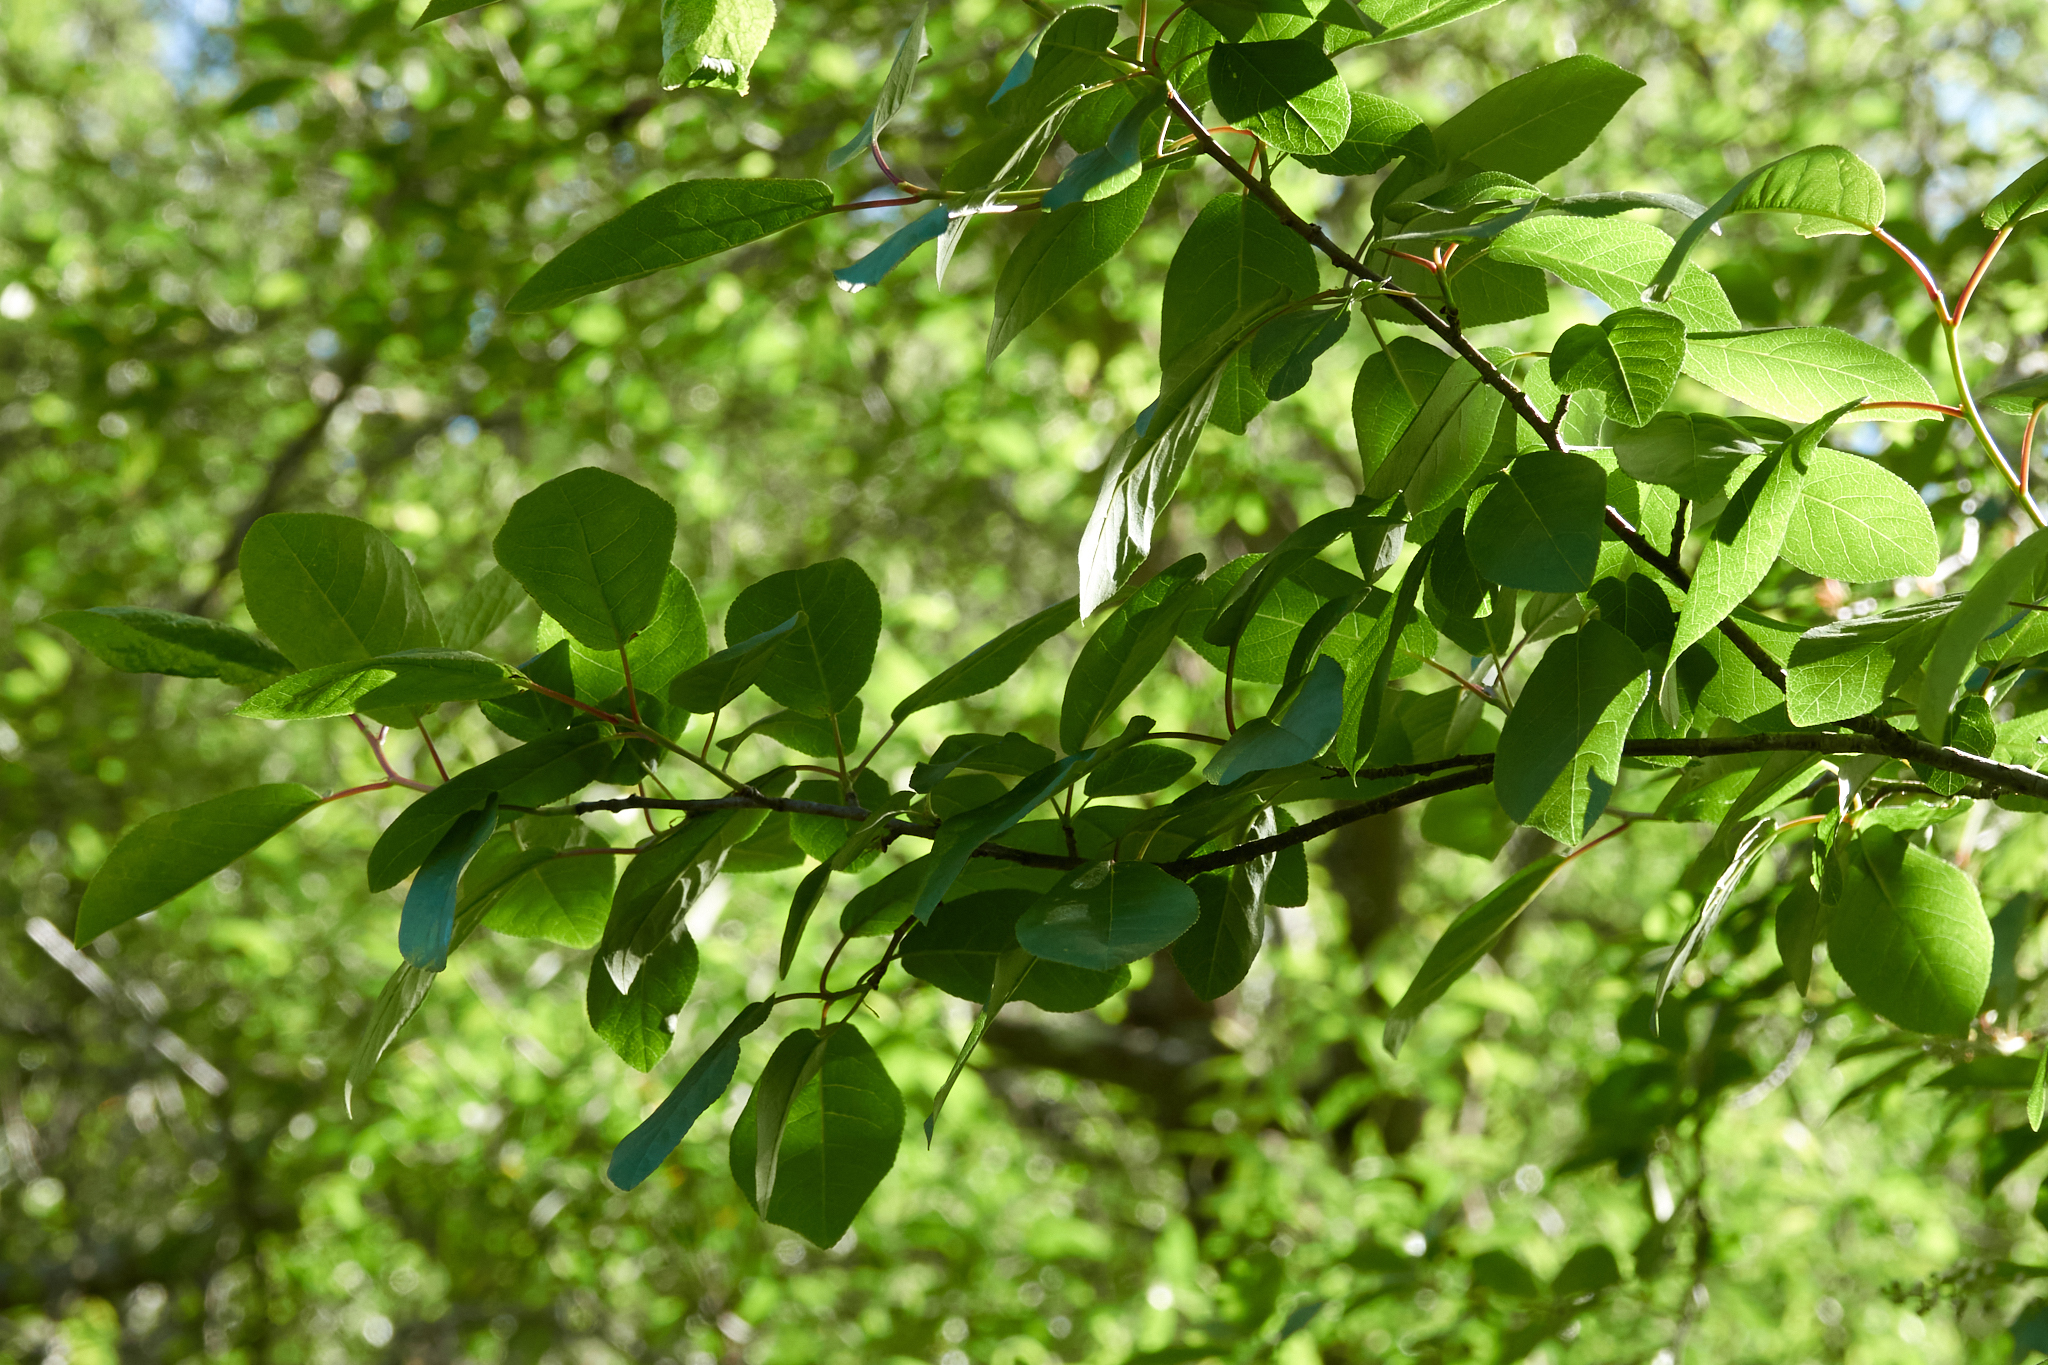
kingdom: Plantae
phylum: Tracheophyta
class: Magnoliopsida
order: Rosales
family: Rosaceae
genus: Prunus
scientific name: Prunus virginiana
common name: Chokecherry
